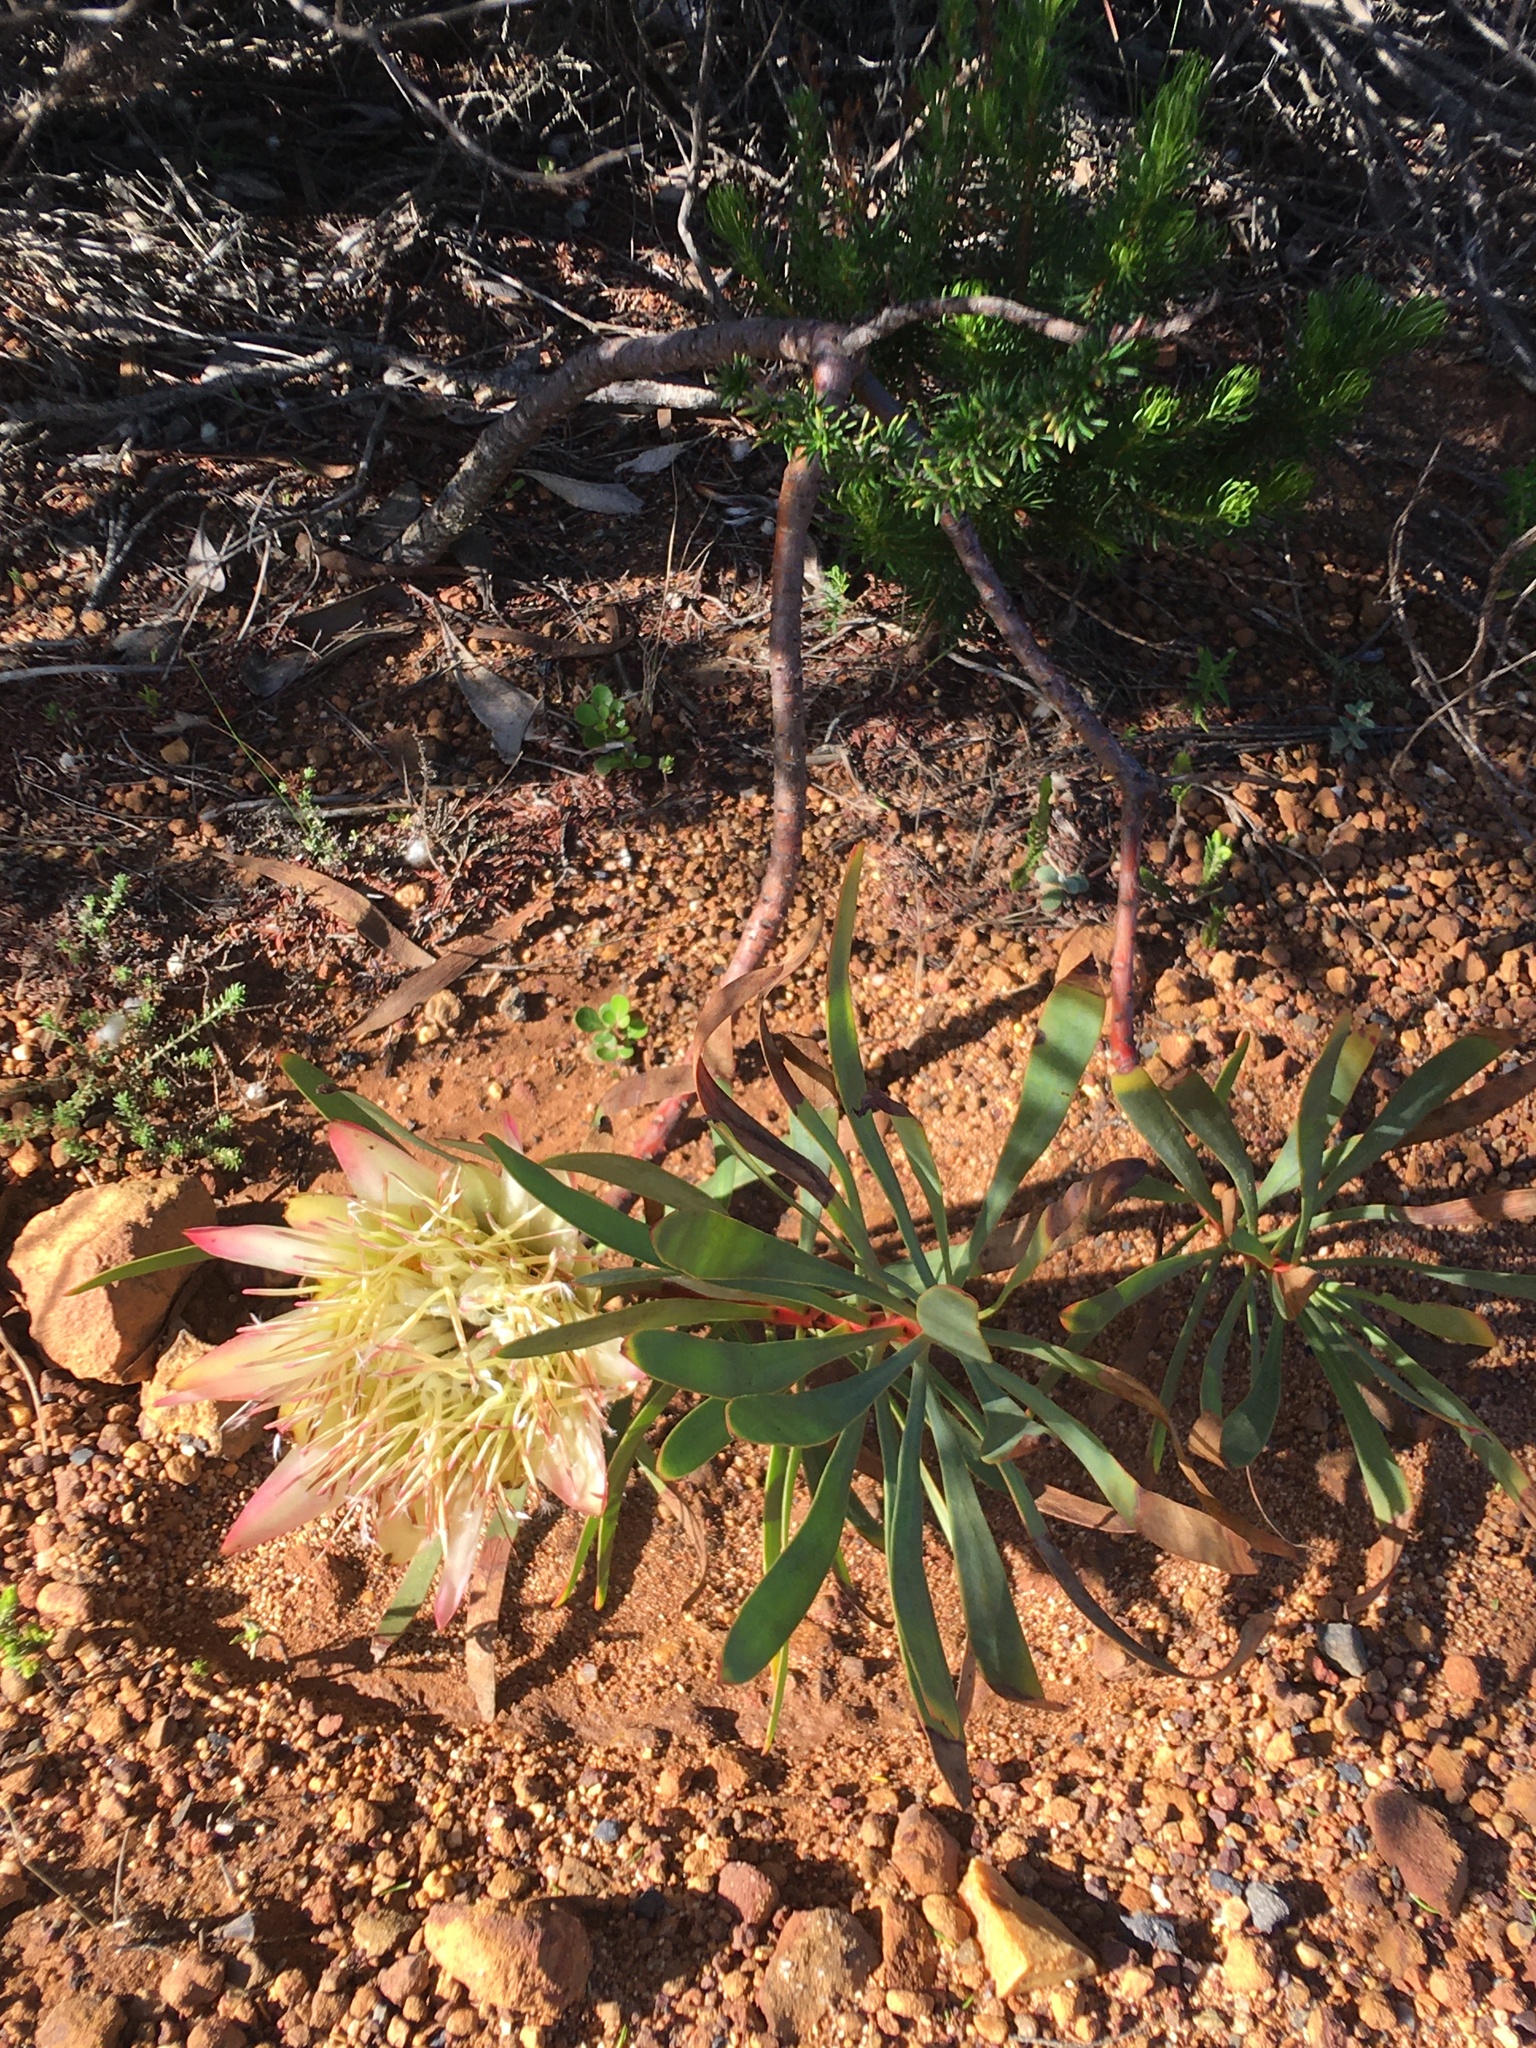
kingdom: Plantae
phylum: Tracheophyta
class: Magnoliopsida
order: Proteales
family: Proteaceae
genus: Protea
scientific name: Protea repens
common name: Sugarbush
